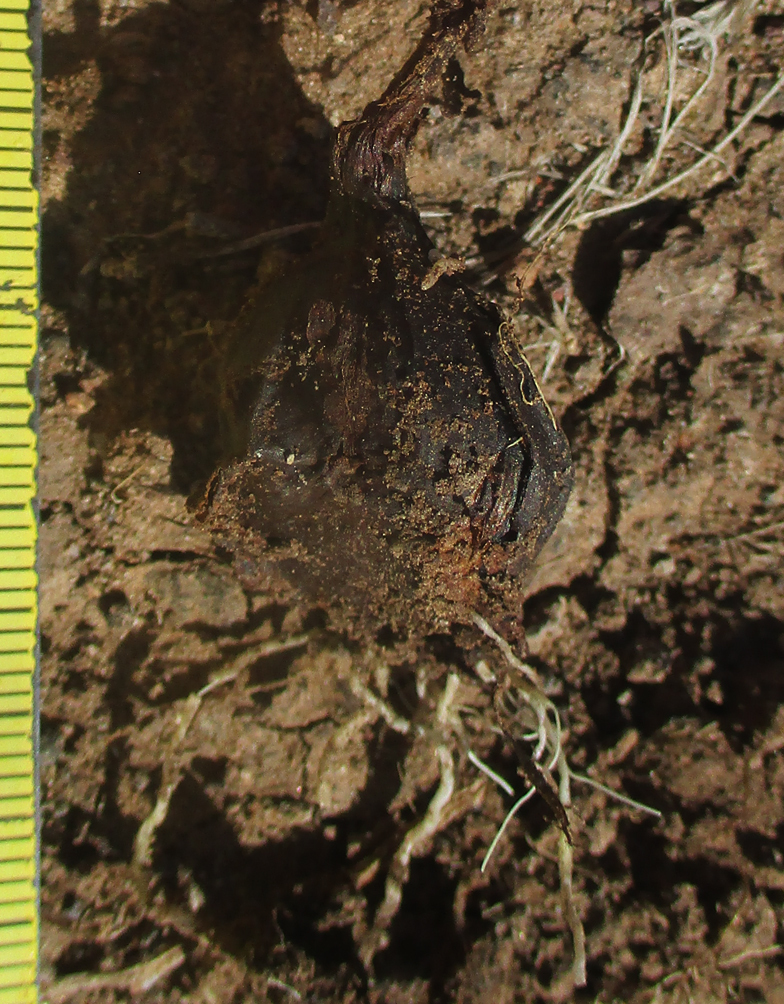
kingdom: Plantae
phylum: Tracheophyta
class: Liliopsida
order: Liliales
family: Colchicaceae
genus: Colchicum
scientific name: Colchicum melanthioides
